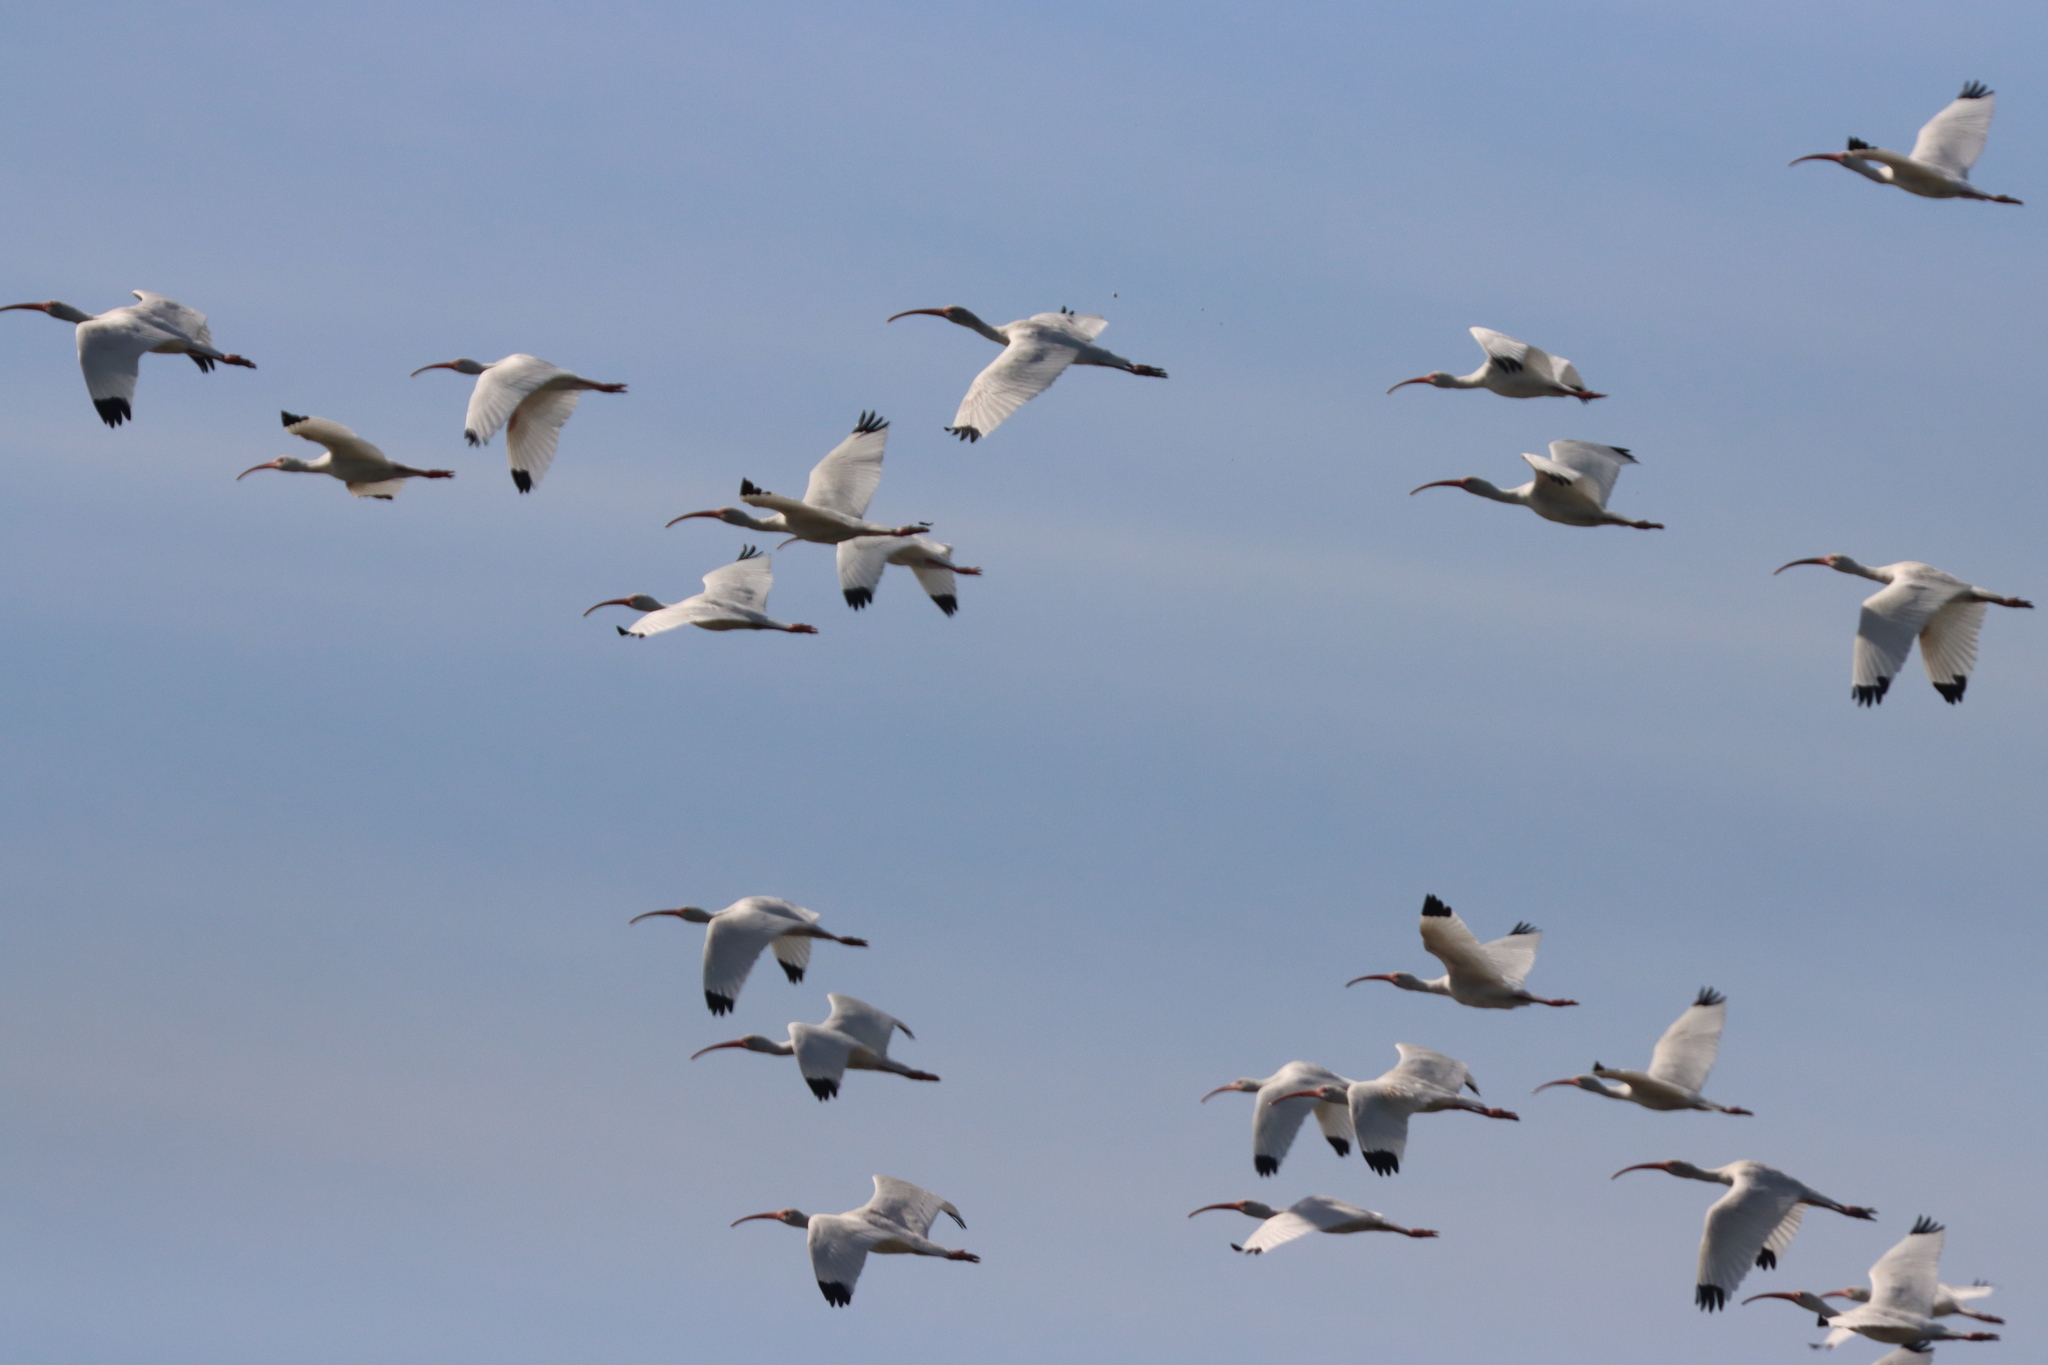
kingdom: Animalia
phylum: Chordata
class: Aves
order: Pelecaniformes
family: Threskiornithidae
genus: Eudocimus
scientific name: Eudocimus albus
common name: White ibis
